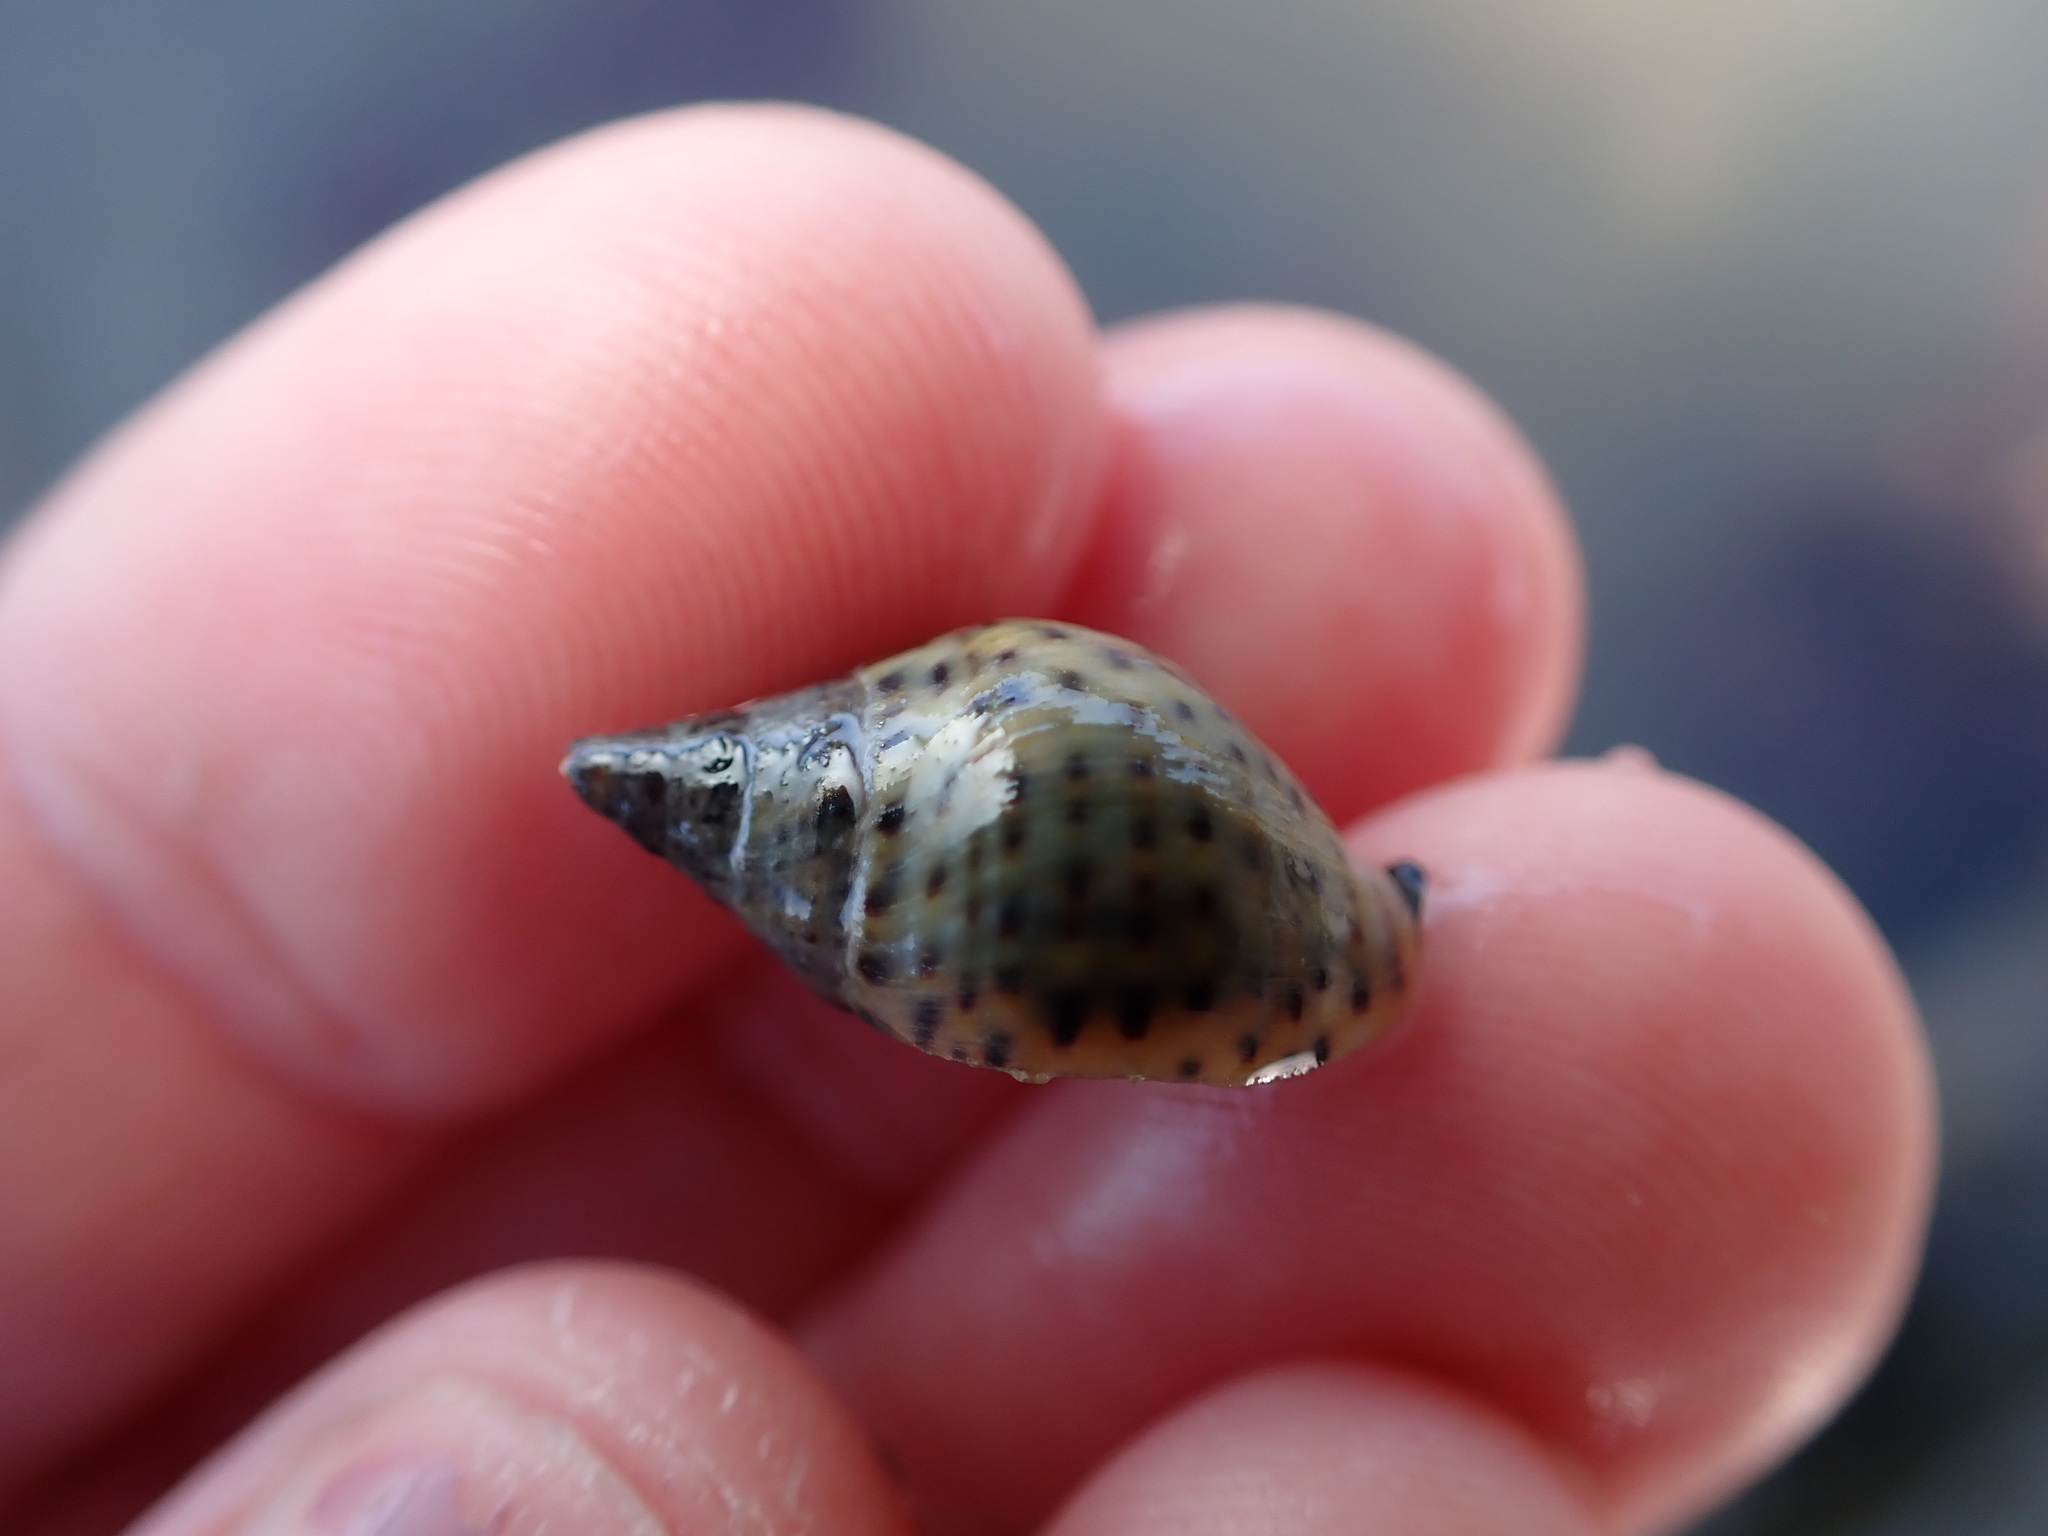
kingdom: Animalia
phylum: Mollusca
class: Gastropoda
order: Neogastropoda
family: Cominellidae
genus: Cominella
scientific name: Cominella maculosa
